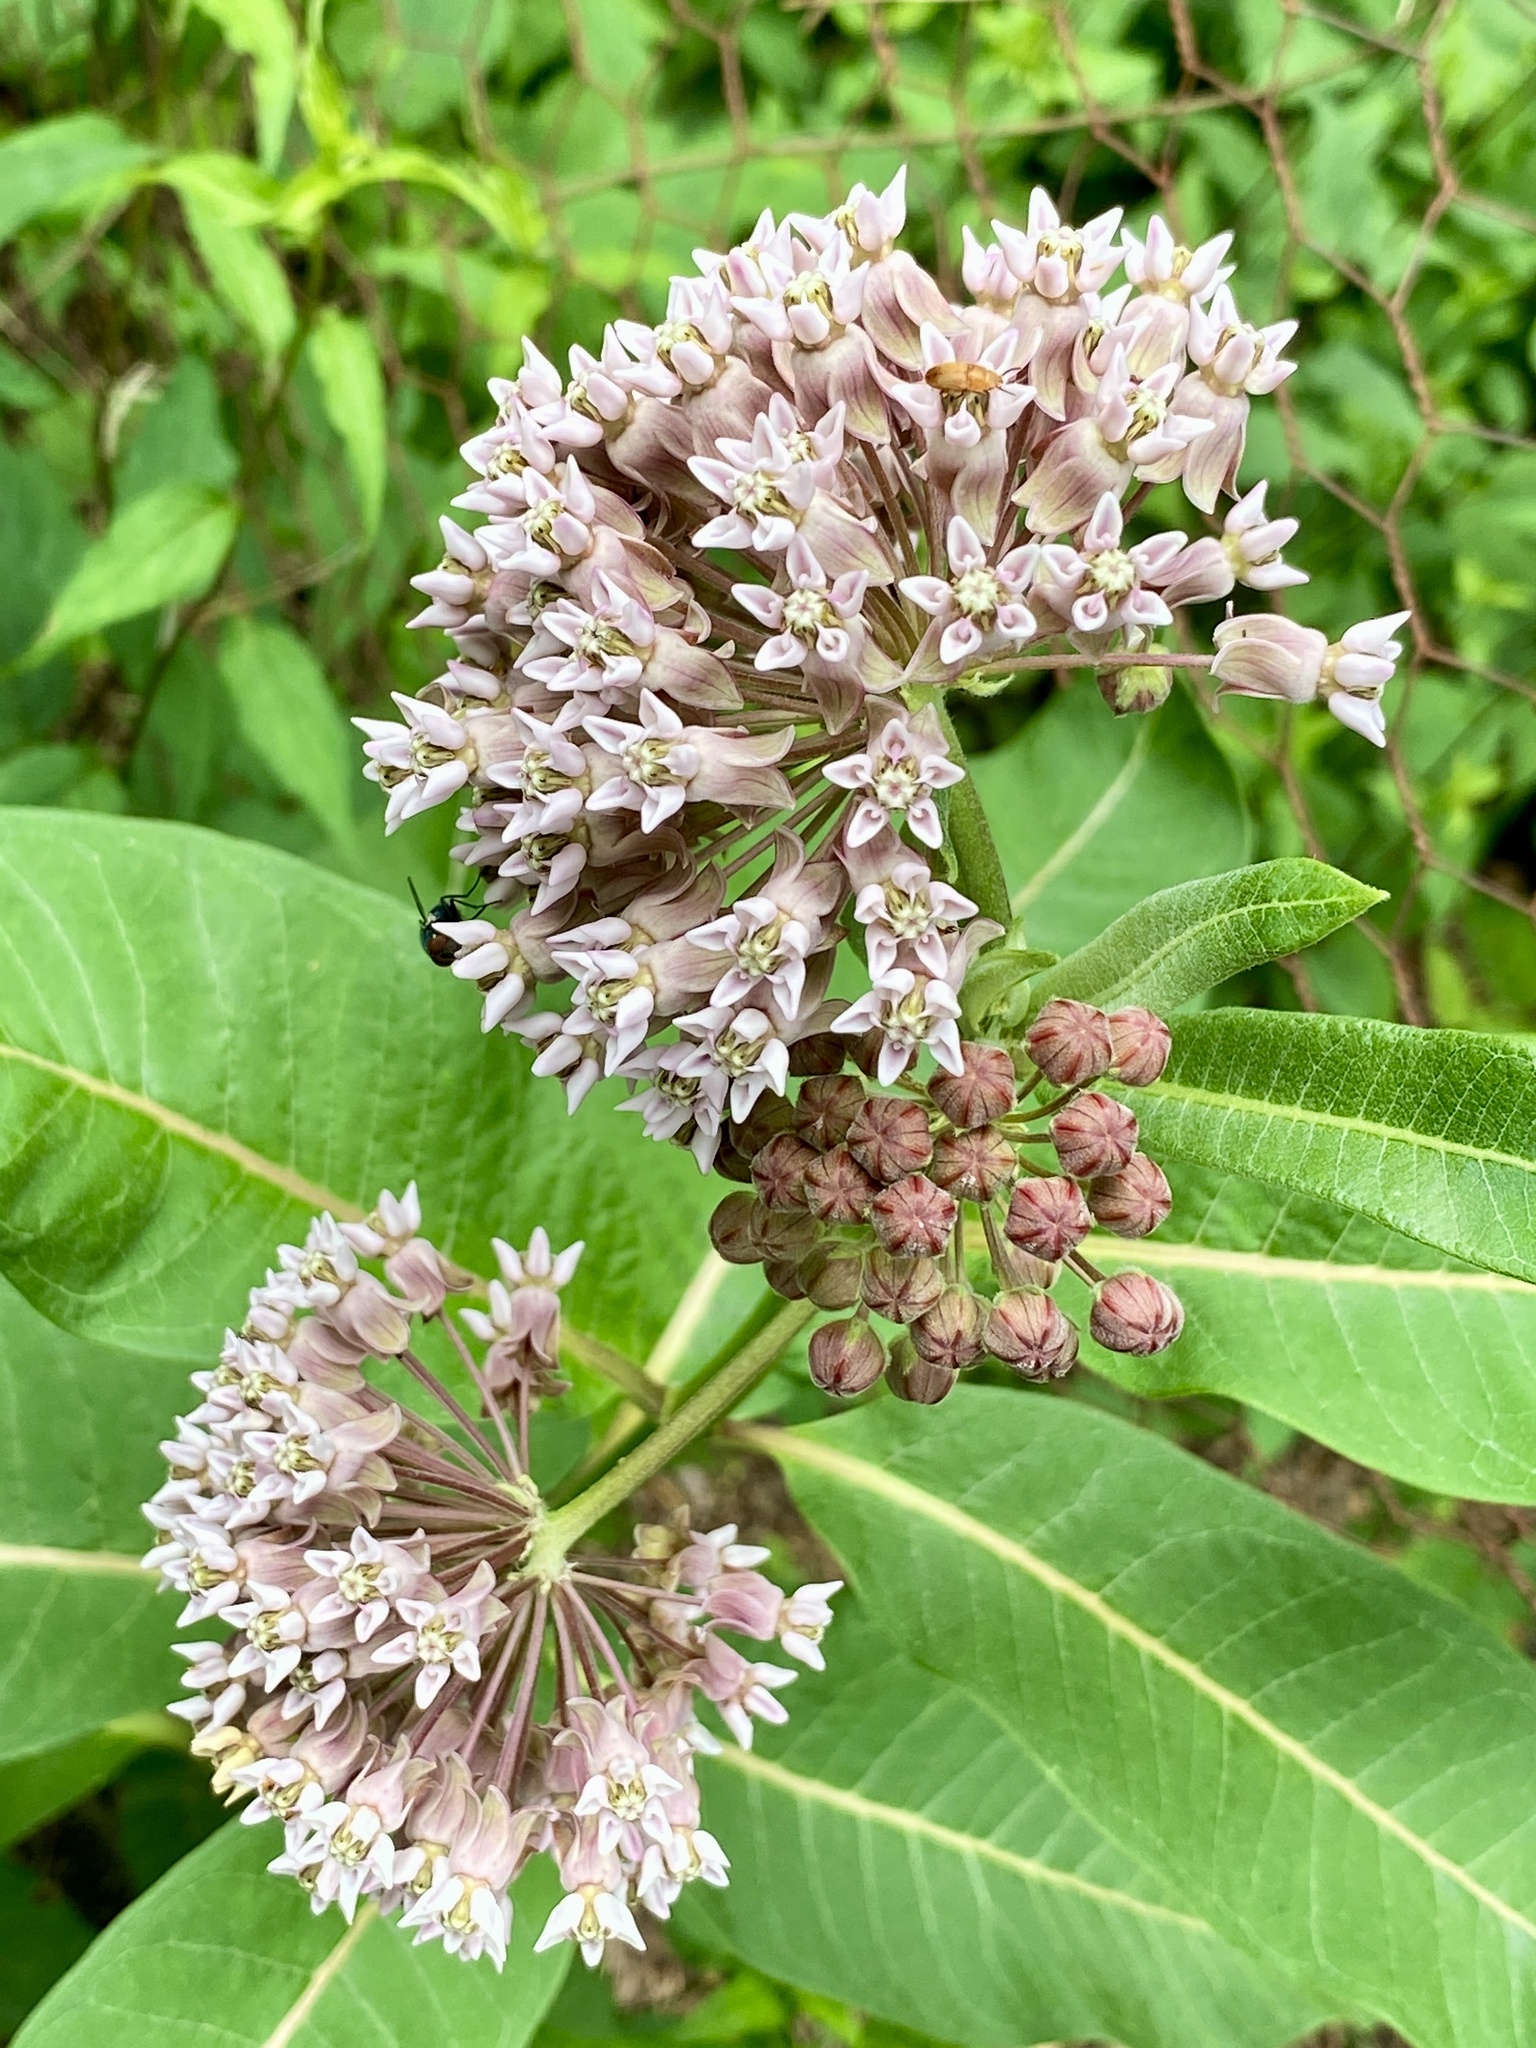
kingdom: Plantae
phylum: Tracheophyta
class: Magnoliopsida
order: Gentianales
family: Apocynaceae
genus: Asclepias
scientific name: Asclepias syriaca
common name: Common milkweed
